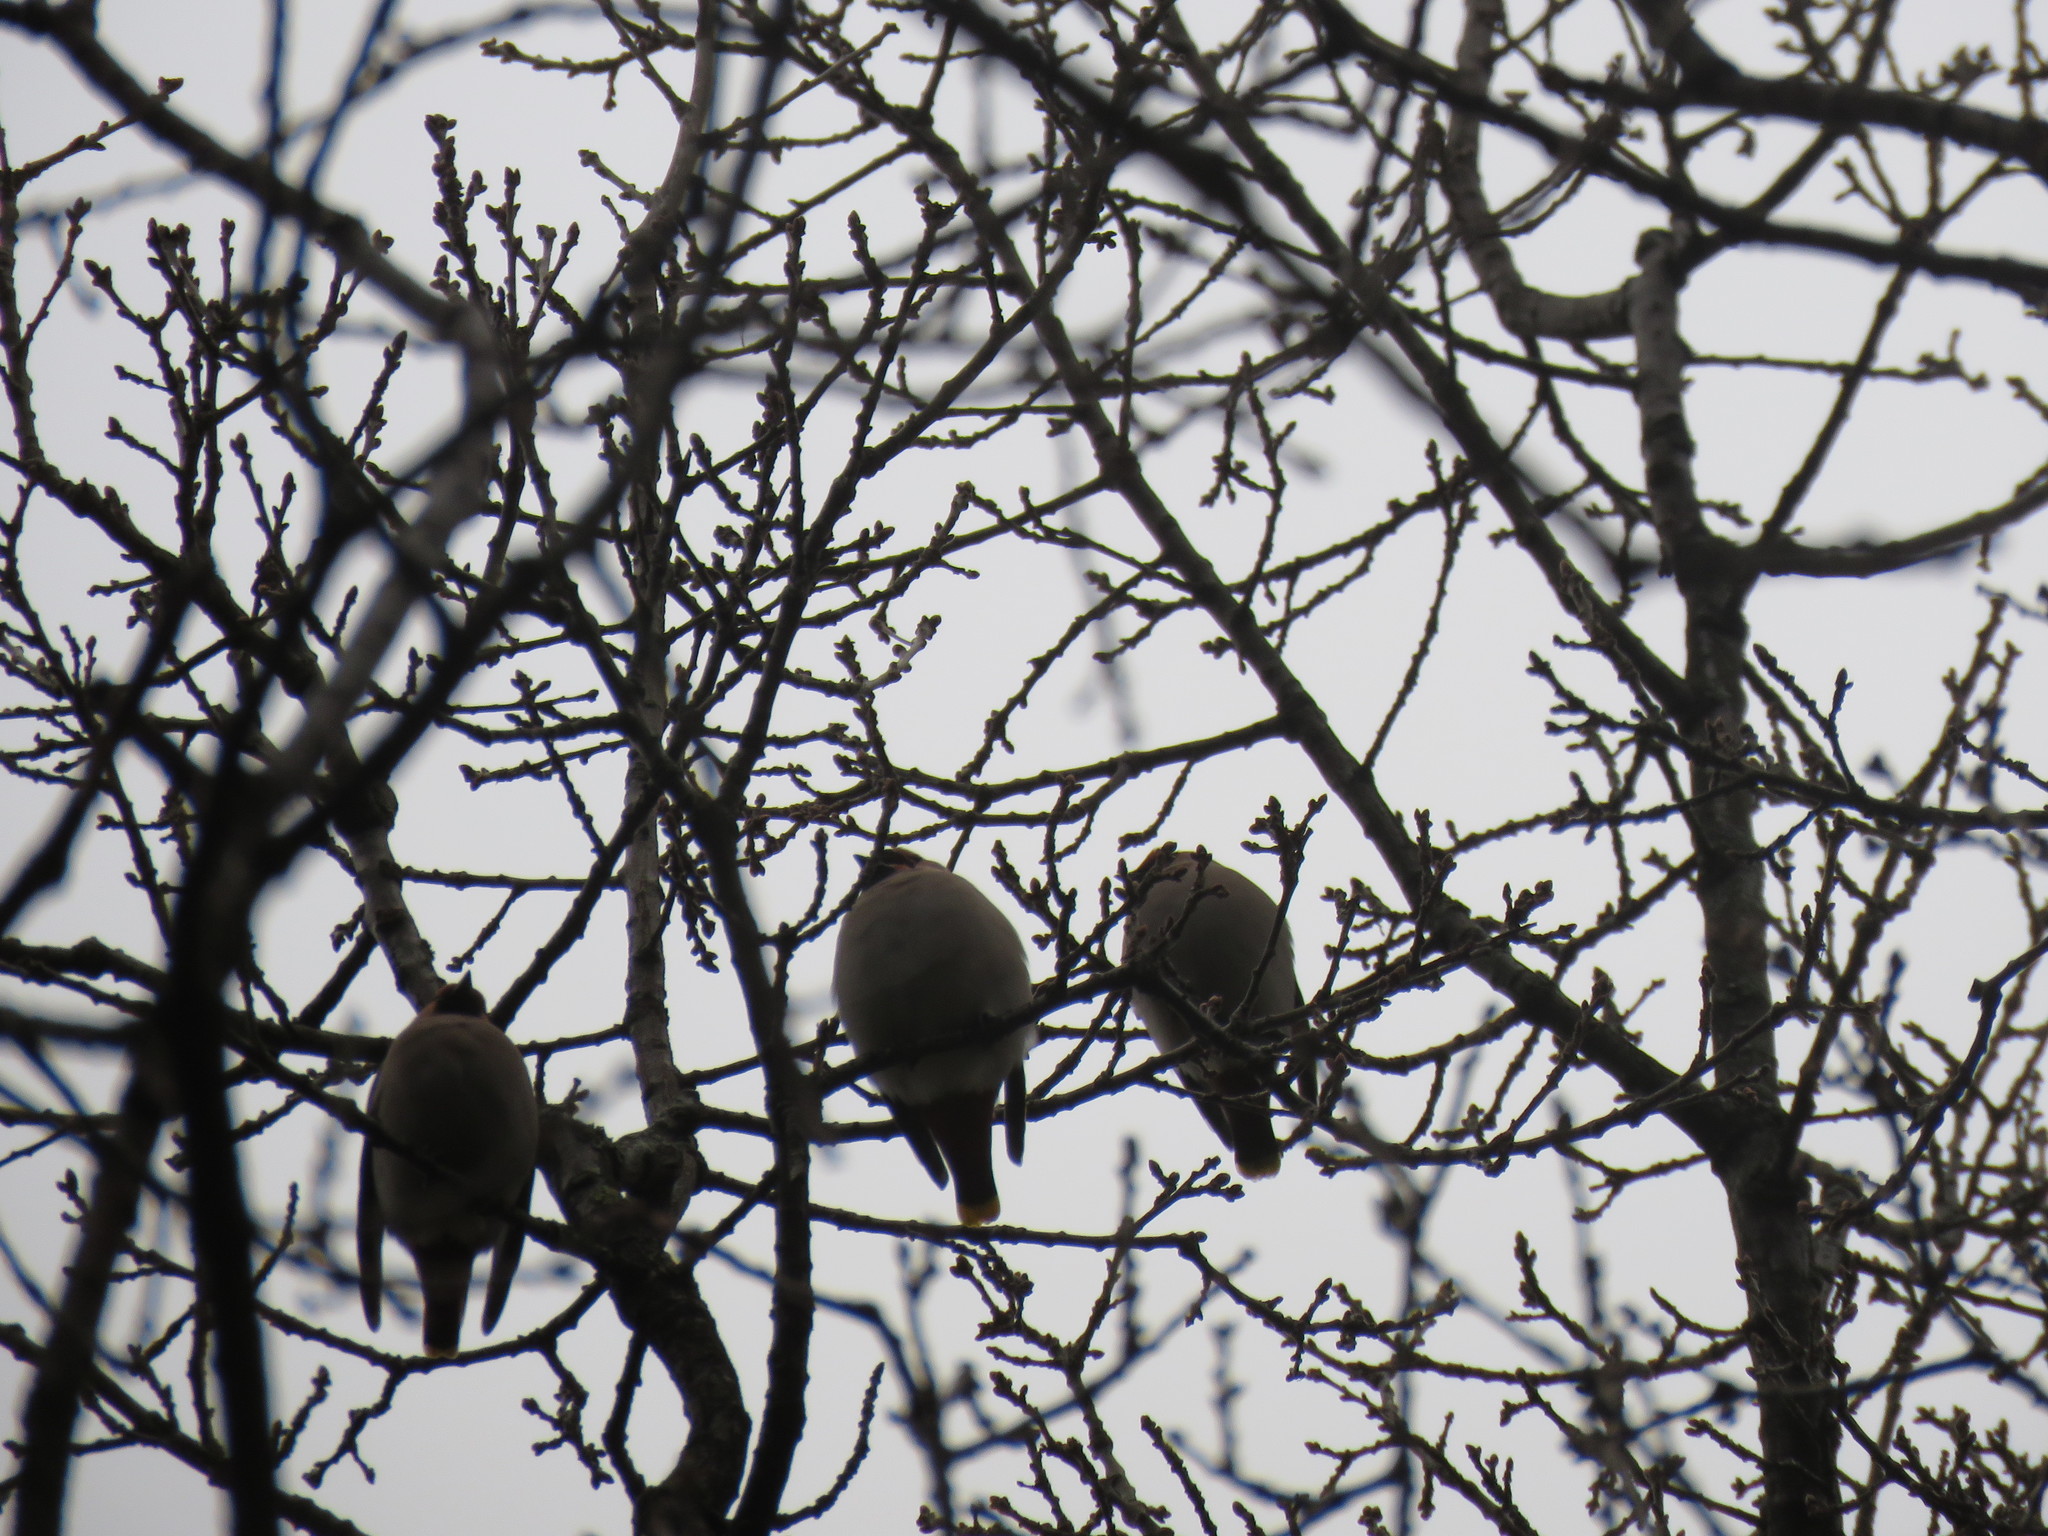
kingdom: Animalia
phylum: Chordata
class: Aves
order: Passeriformes
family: Bombycillidae
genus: Bombycilla
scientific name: Bombycilla garrulus
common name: Bohemian waxwing
